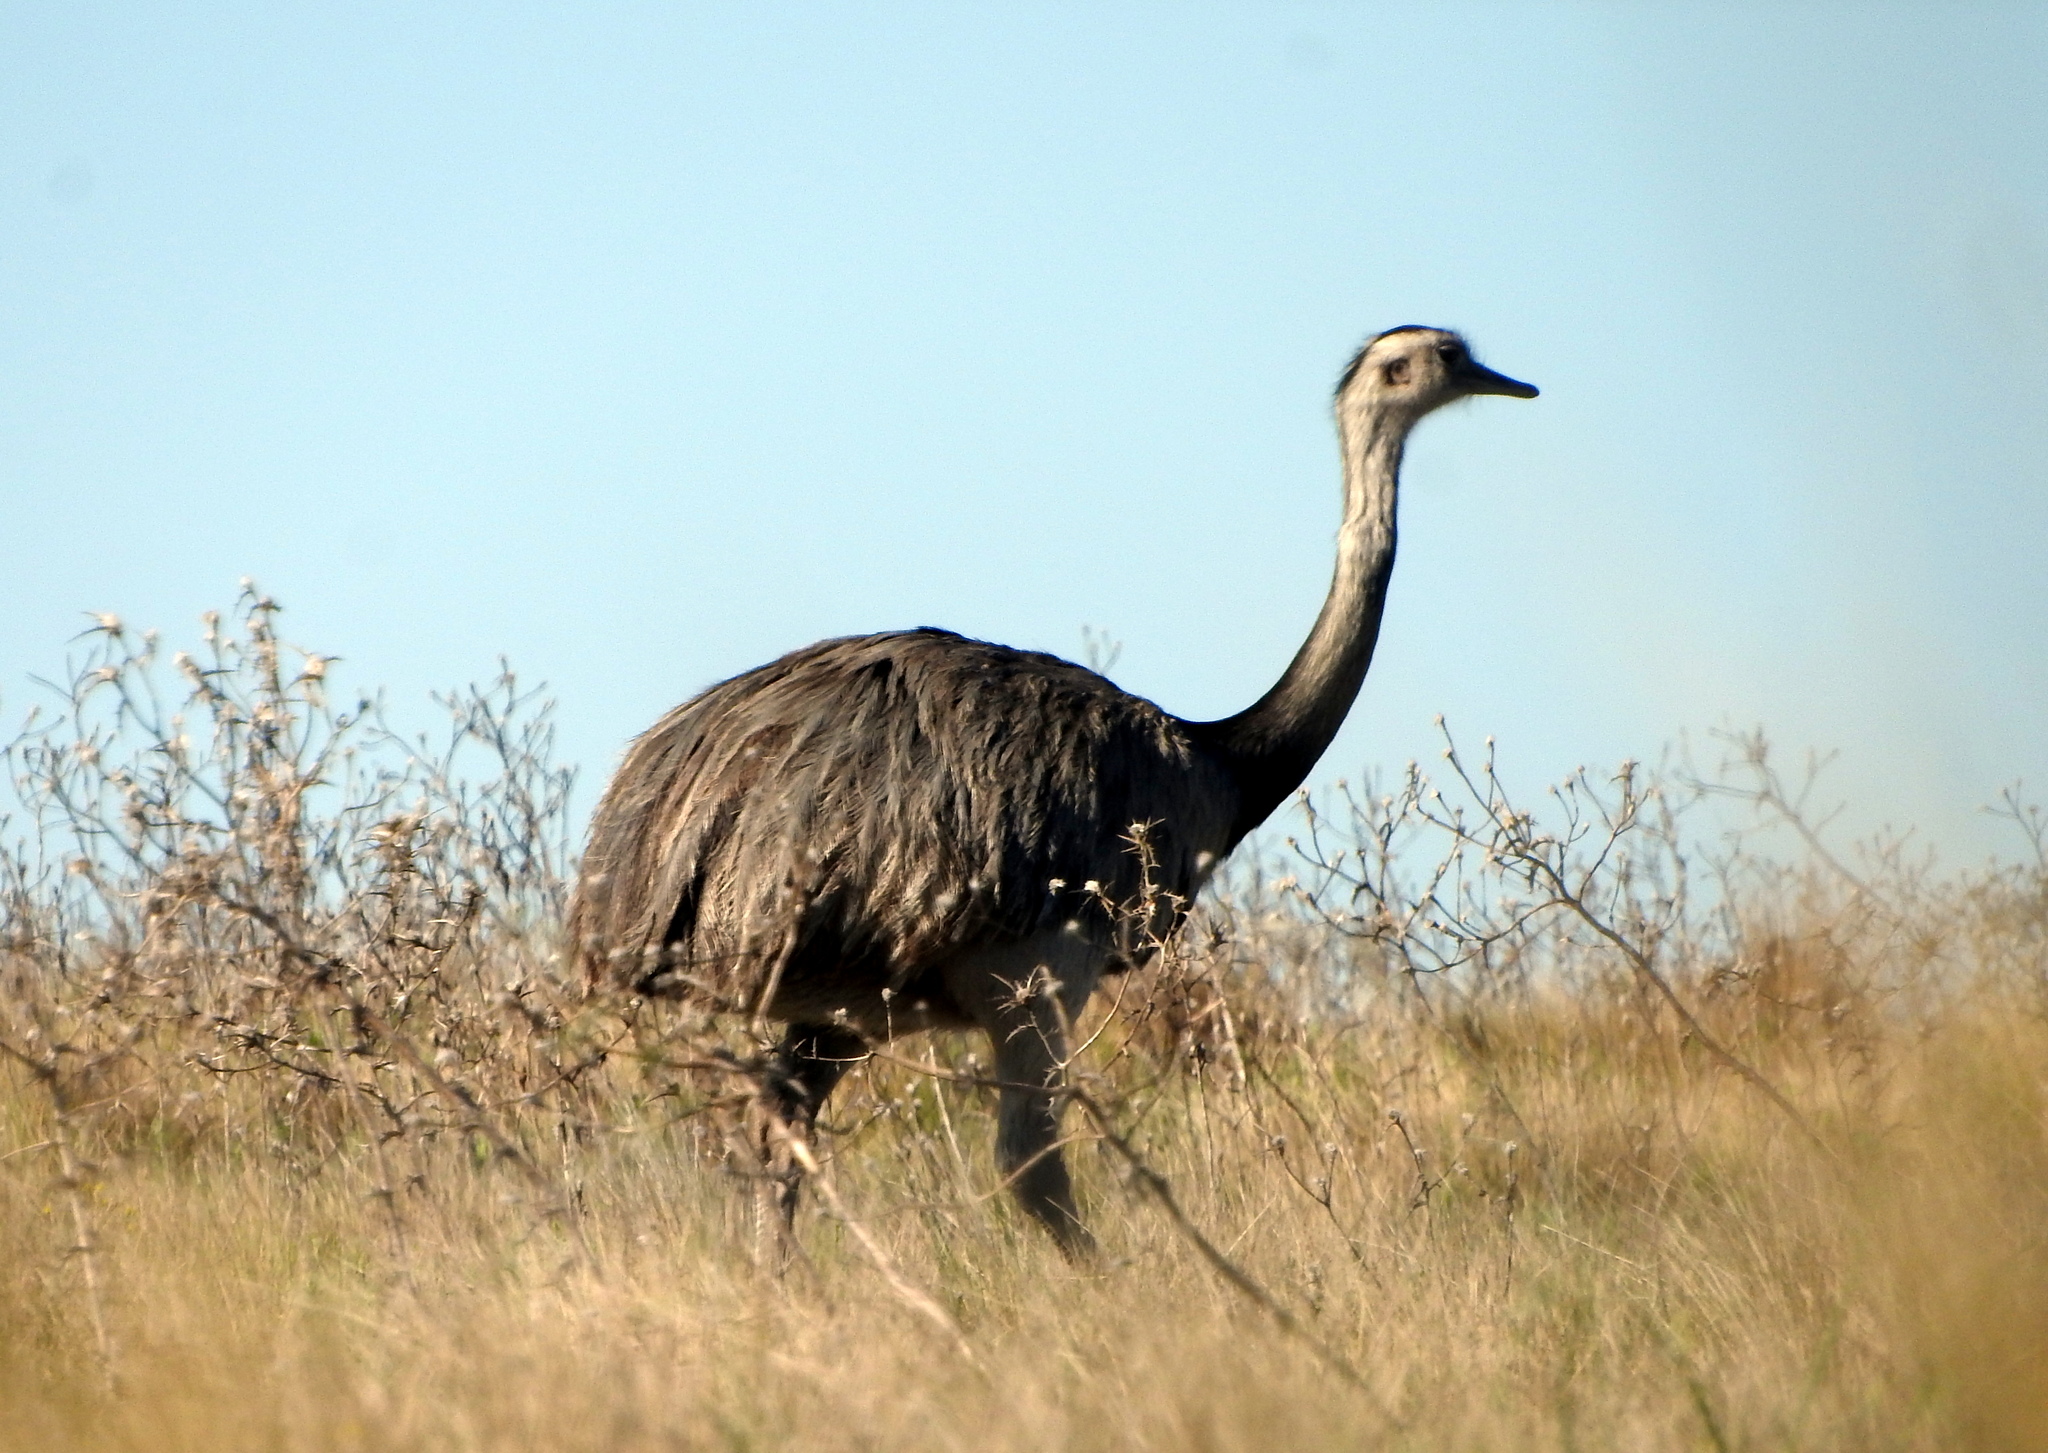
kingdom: Animalia
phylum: Chordata
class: Aves
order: Rheiformes
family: Rheidae
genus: Rhea
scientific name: Rhea americana
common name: Greater rhea
